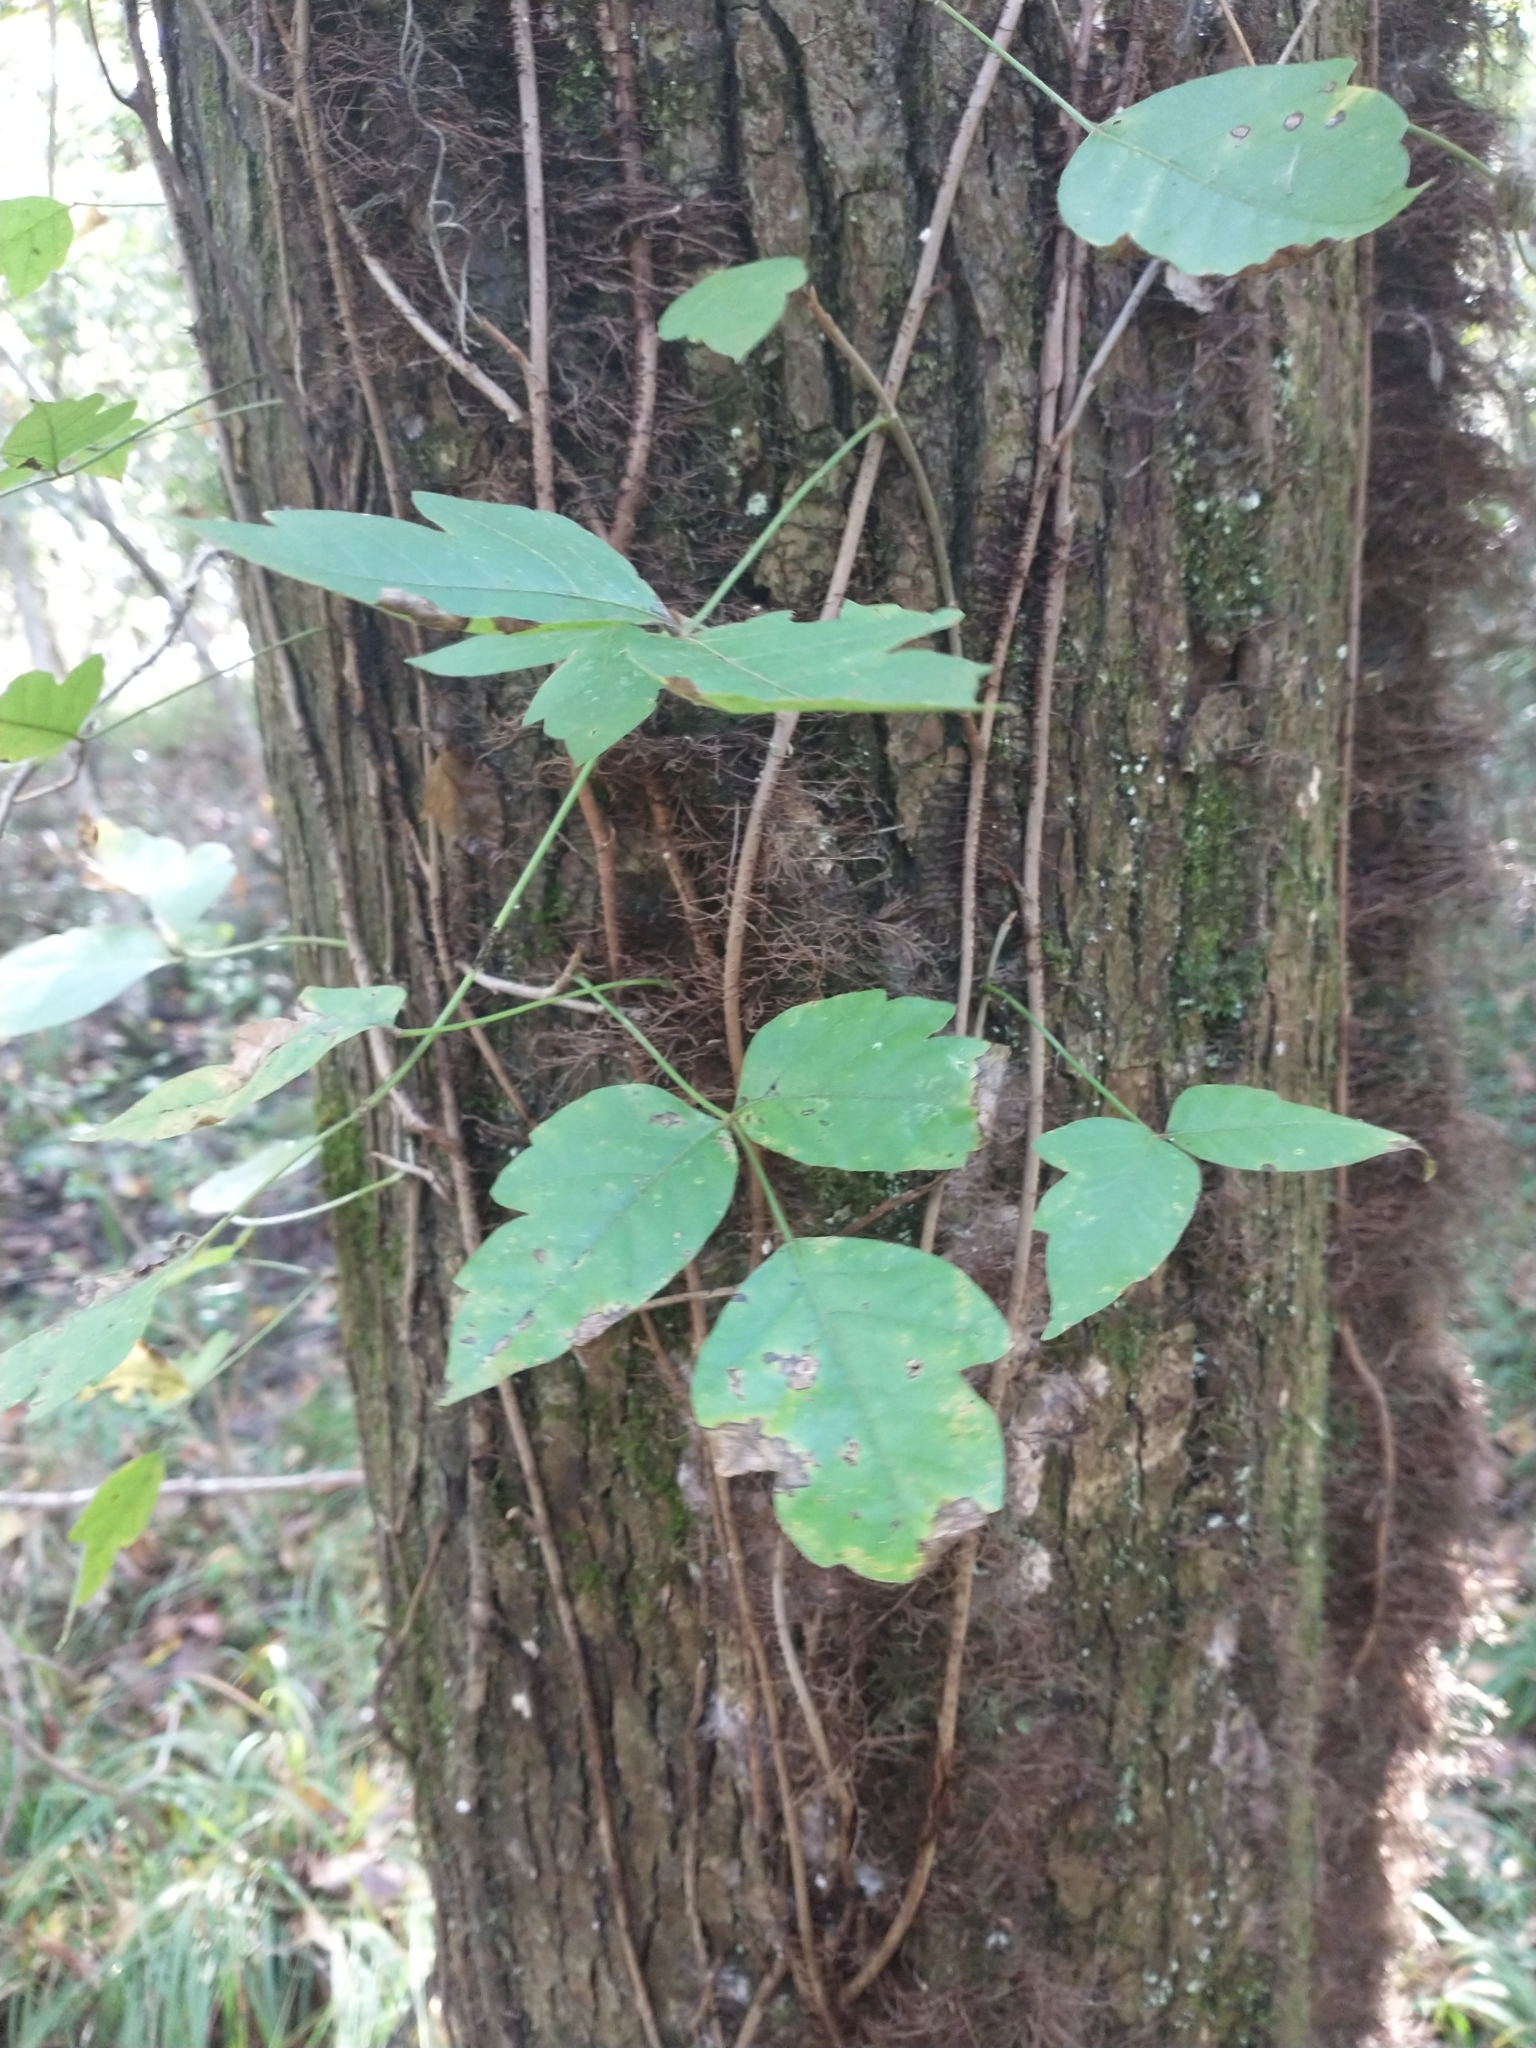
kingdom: Plantae
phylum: Tracheophyta
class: Magnoliopsida
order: Sapindales
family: Anacardiaceae
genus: Toxicodendron
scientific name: Toxicodendron radicans
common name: Poison ivy
